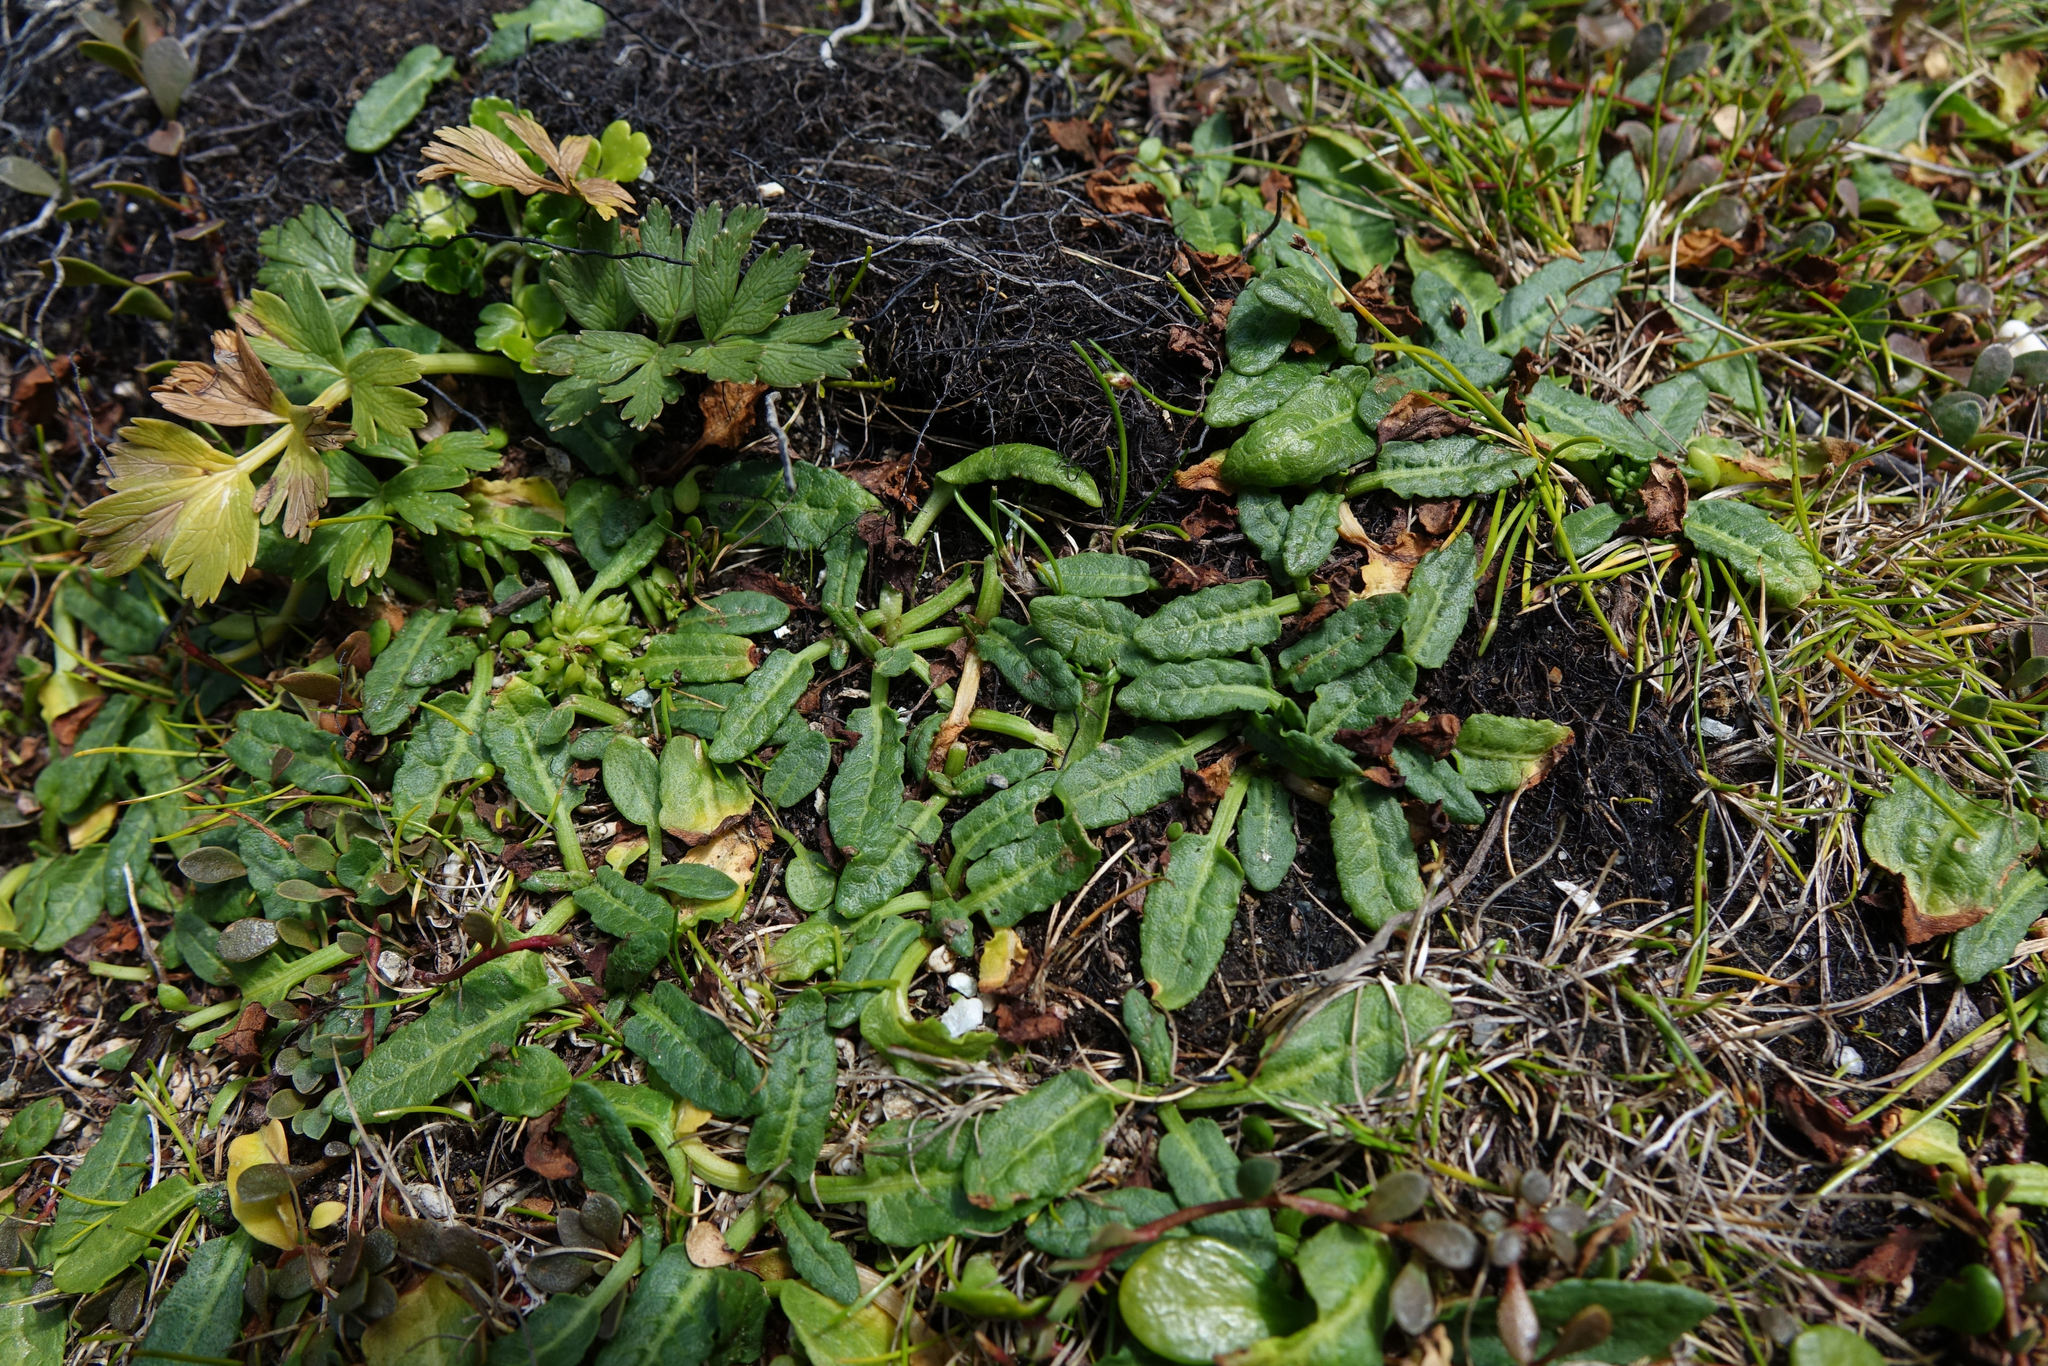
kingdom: Plantae
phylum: Tracheophyta
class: Magnoliopsida
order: Caryophyllales
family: Polygonaceae
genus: Rumex
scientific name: Rumex neglectus
